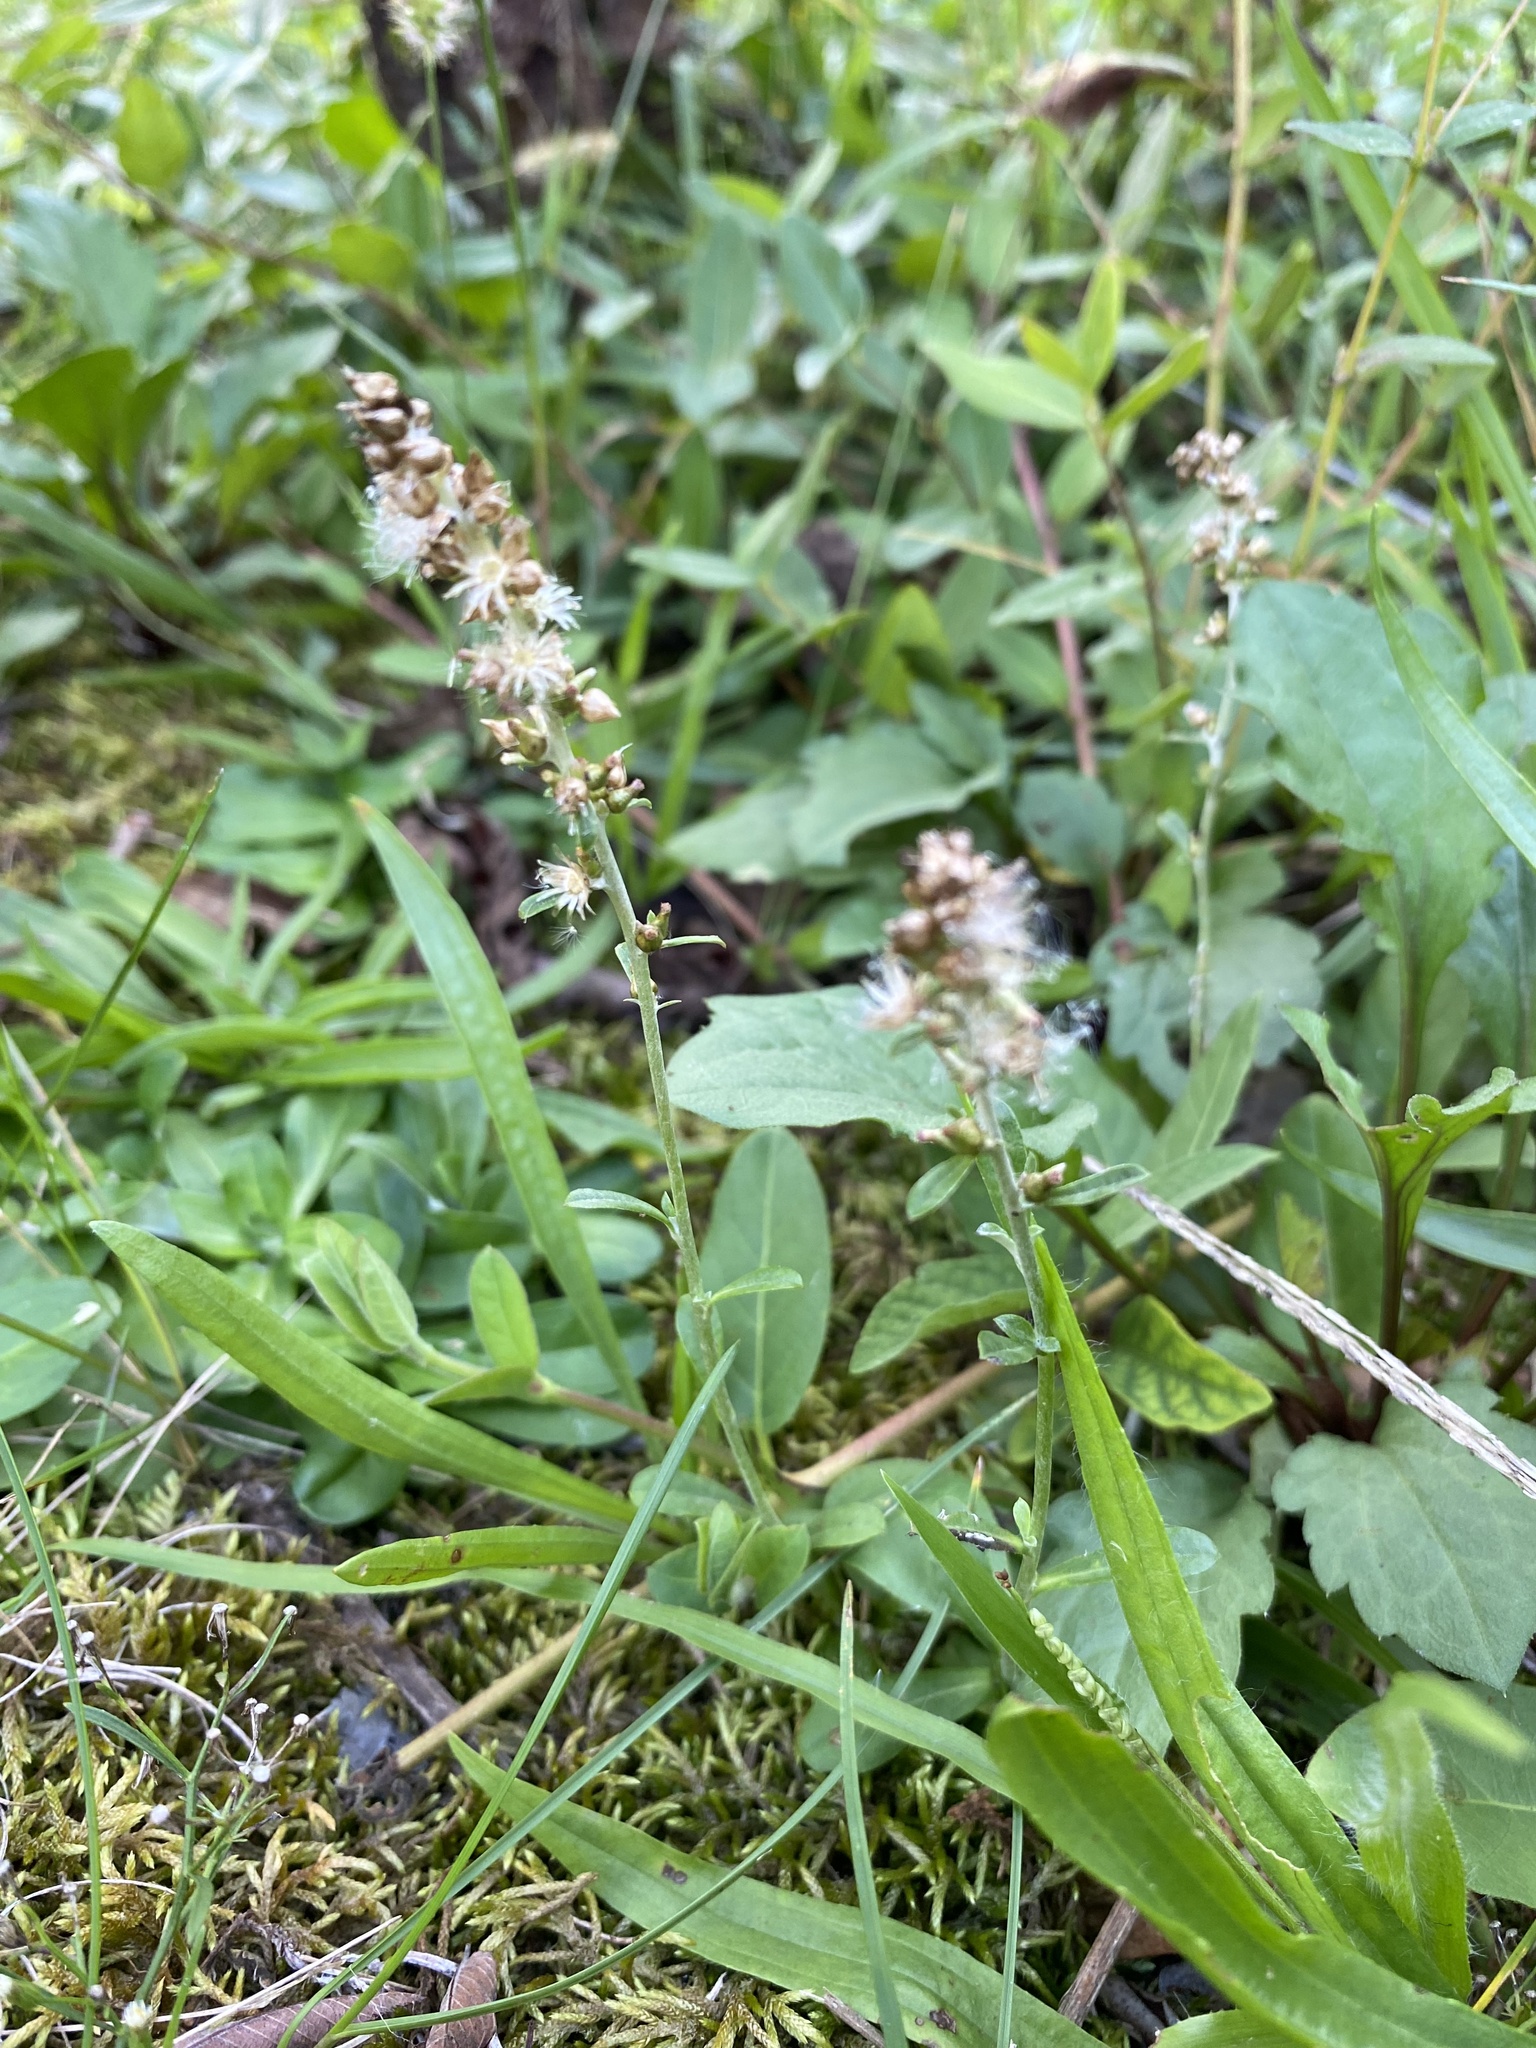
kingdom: Plantae
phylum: Tracheophyta
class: Magnoliopsida
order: Asterales
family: Asteraceae
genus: Gamochaeta
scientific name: Gamochaeta purpurea
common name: Purple cudweed
